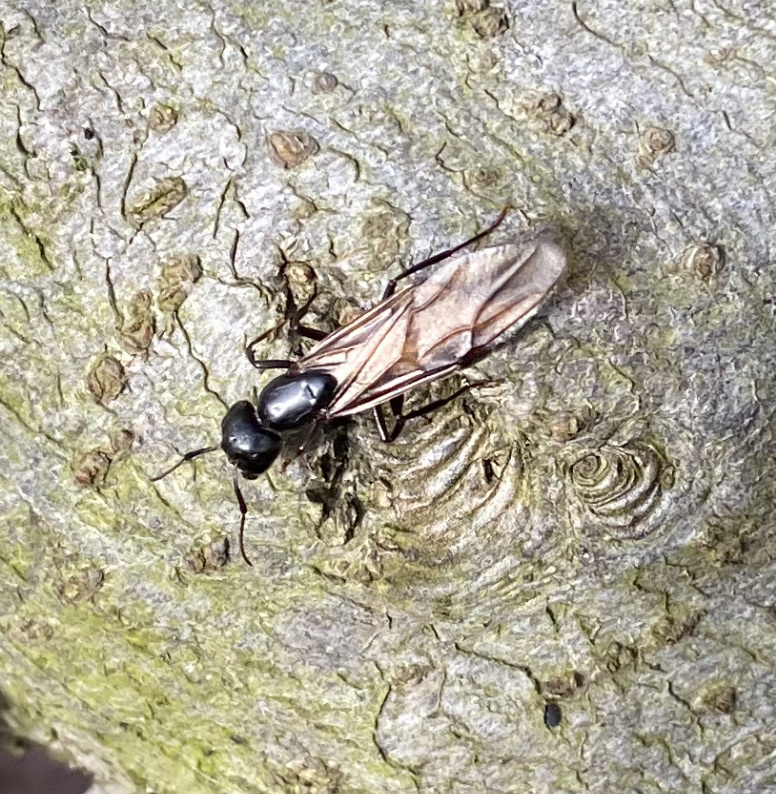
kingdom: Animalia
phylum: Arthropoda
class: Insecta
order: Hymenoptera
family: Formicidae
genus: Camponotus
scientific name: Camponotus pennsylvanicus
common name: Black carpenter ant
